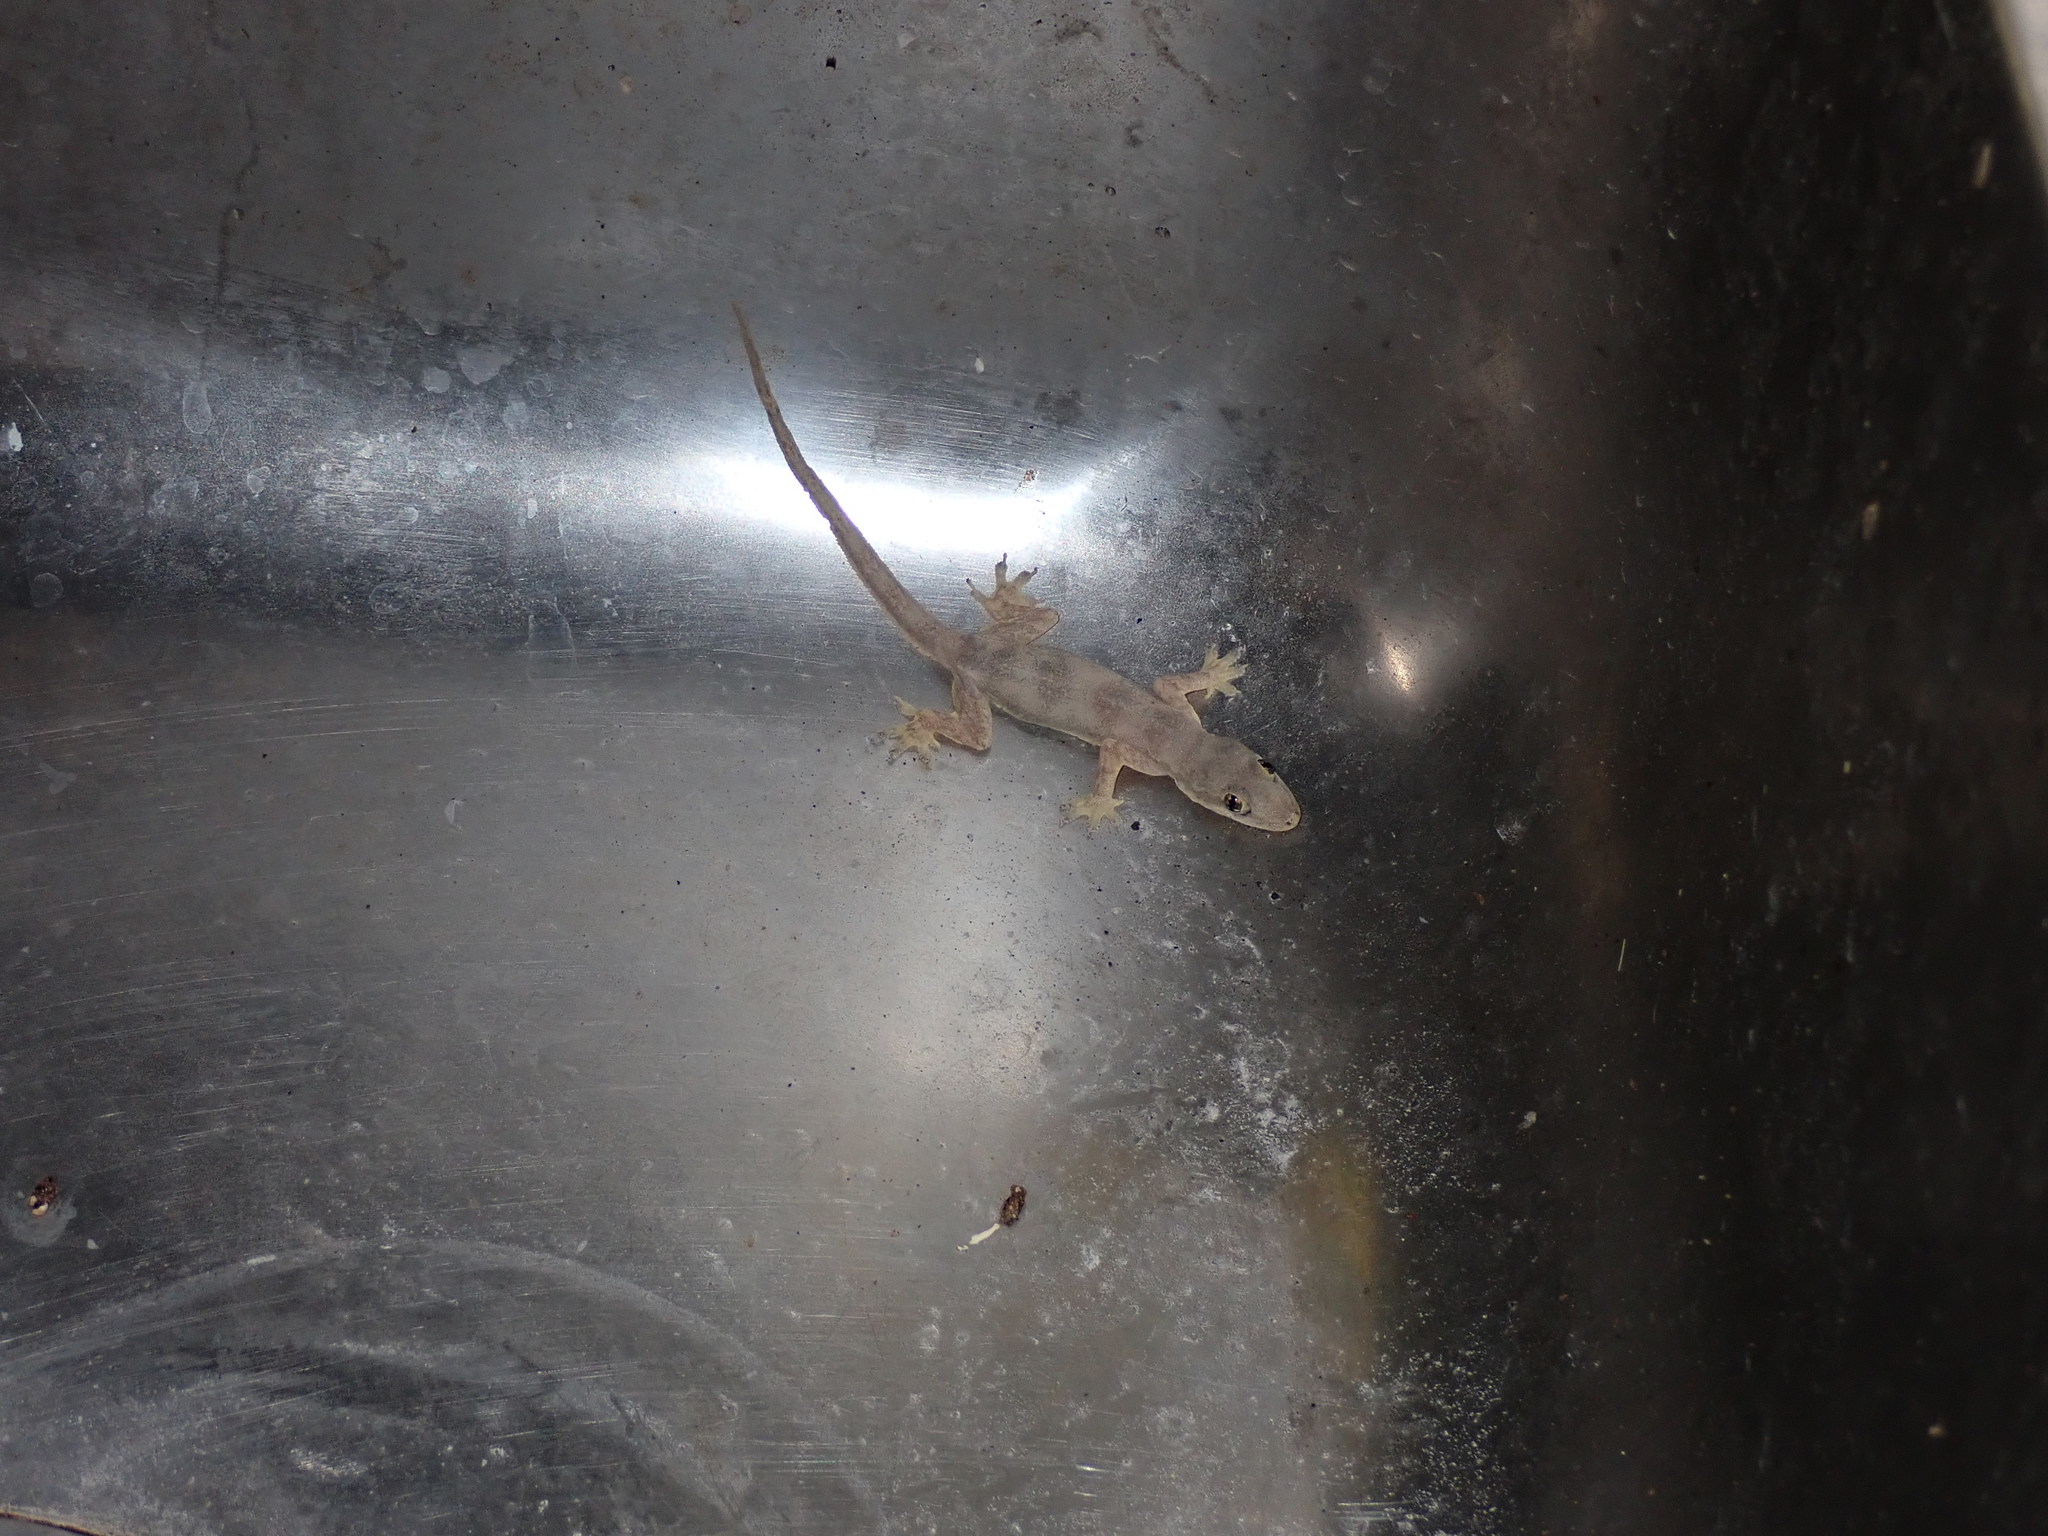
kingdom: Animalia
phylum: Chordata
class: Squamata
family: Gekkonidae
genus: Hemidactylus
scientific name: Hemidactylus platyurus
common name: Flat-tailed house gecko
